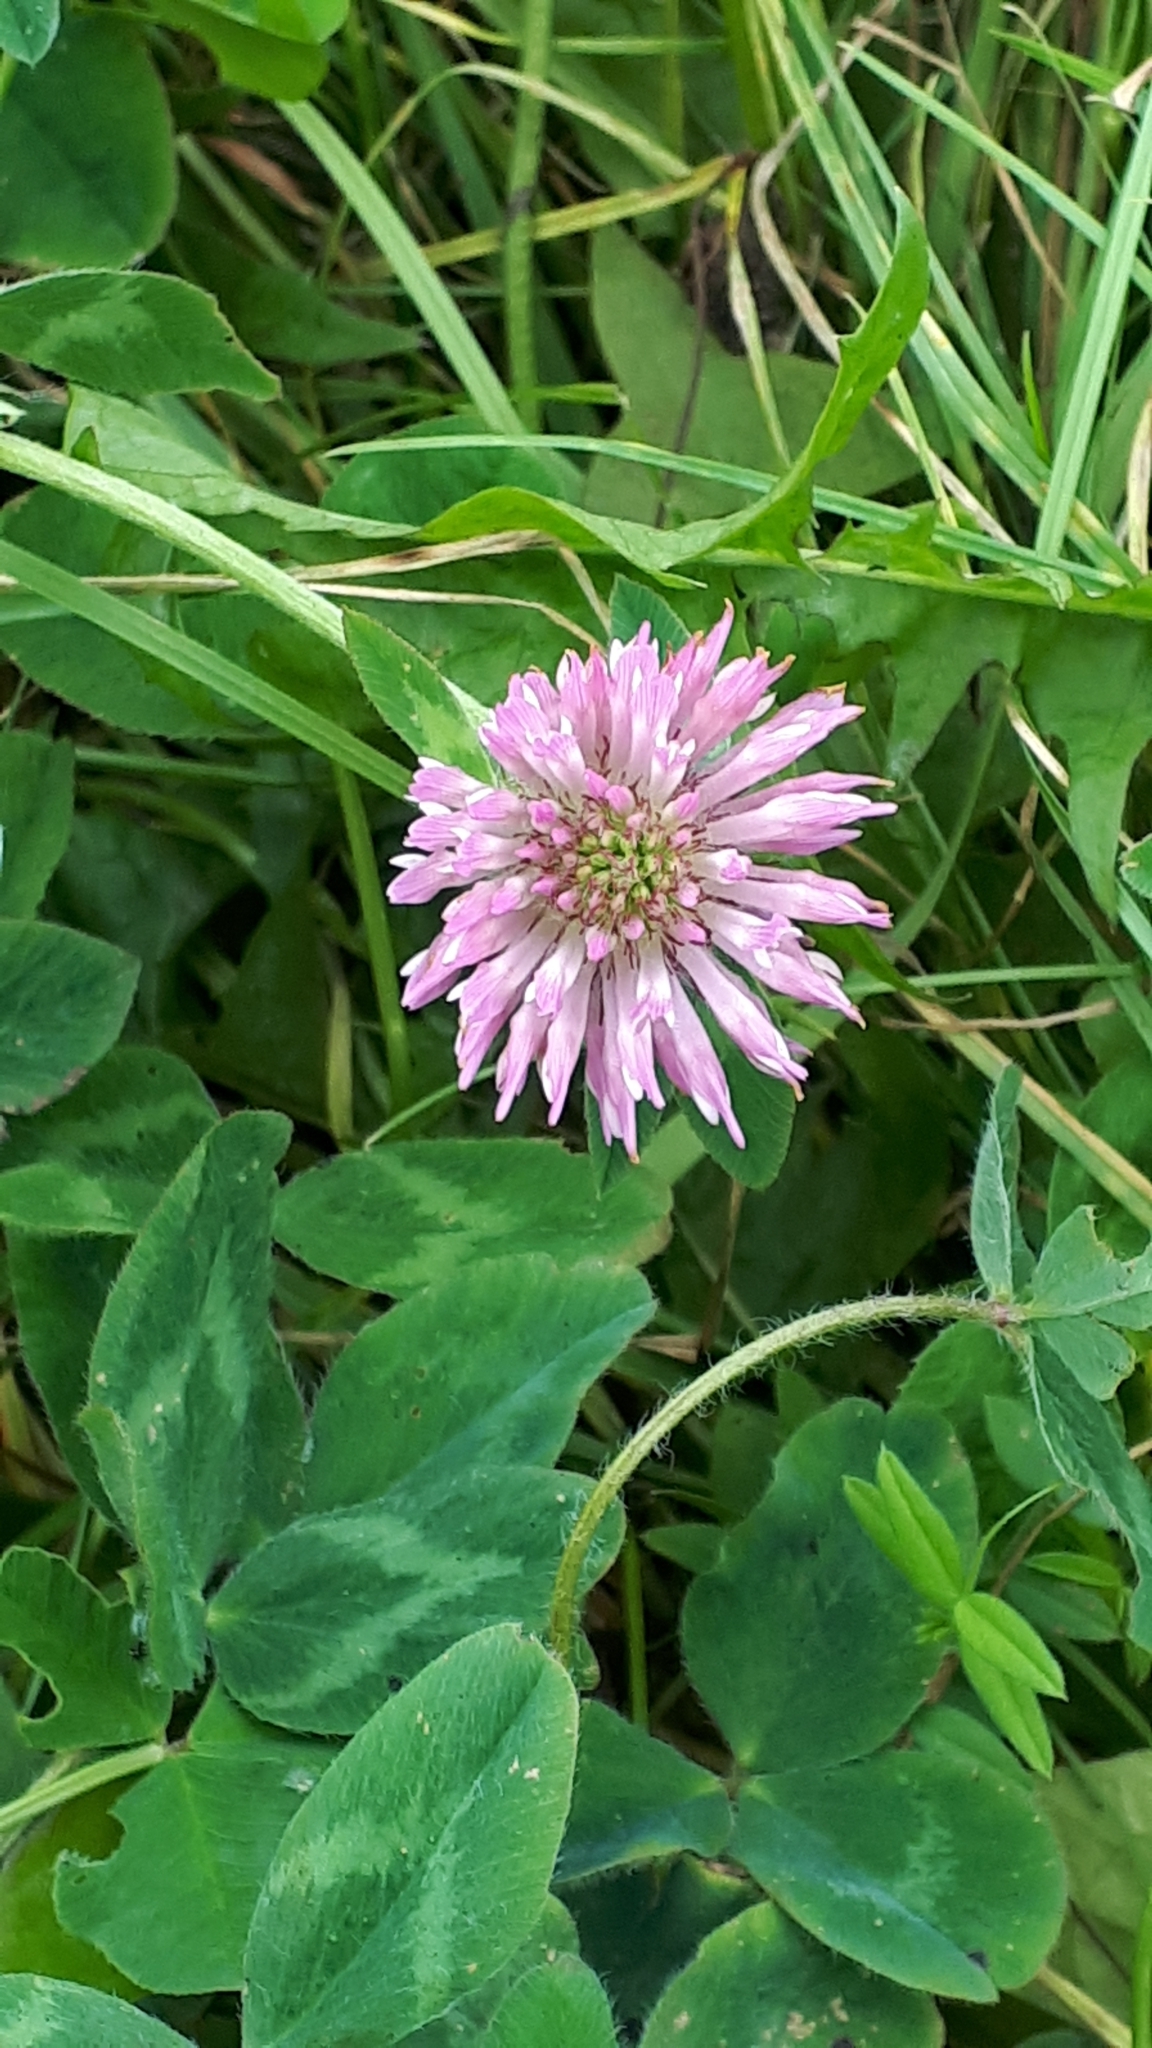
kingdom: Plantae
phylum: Tracheophyta
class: Magnoliopsida
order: Fabales
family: Fabaceae
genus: Trifolium
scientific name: Trifolium pratense
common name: Red clover
